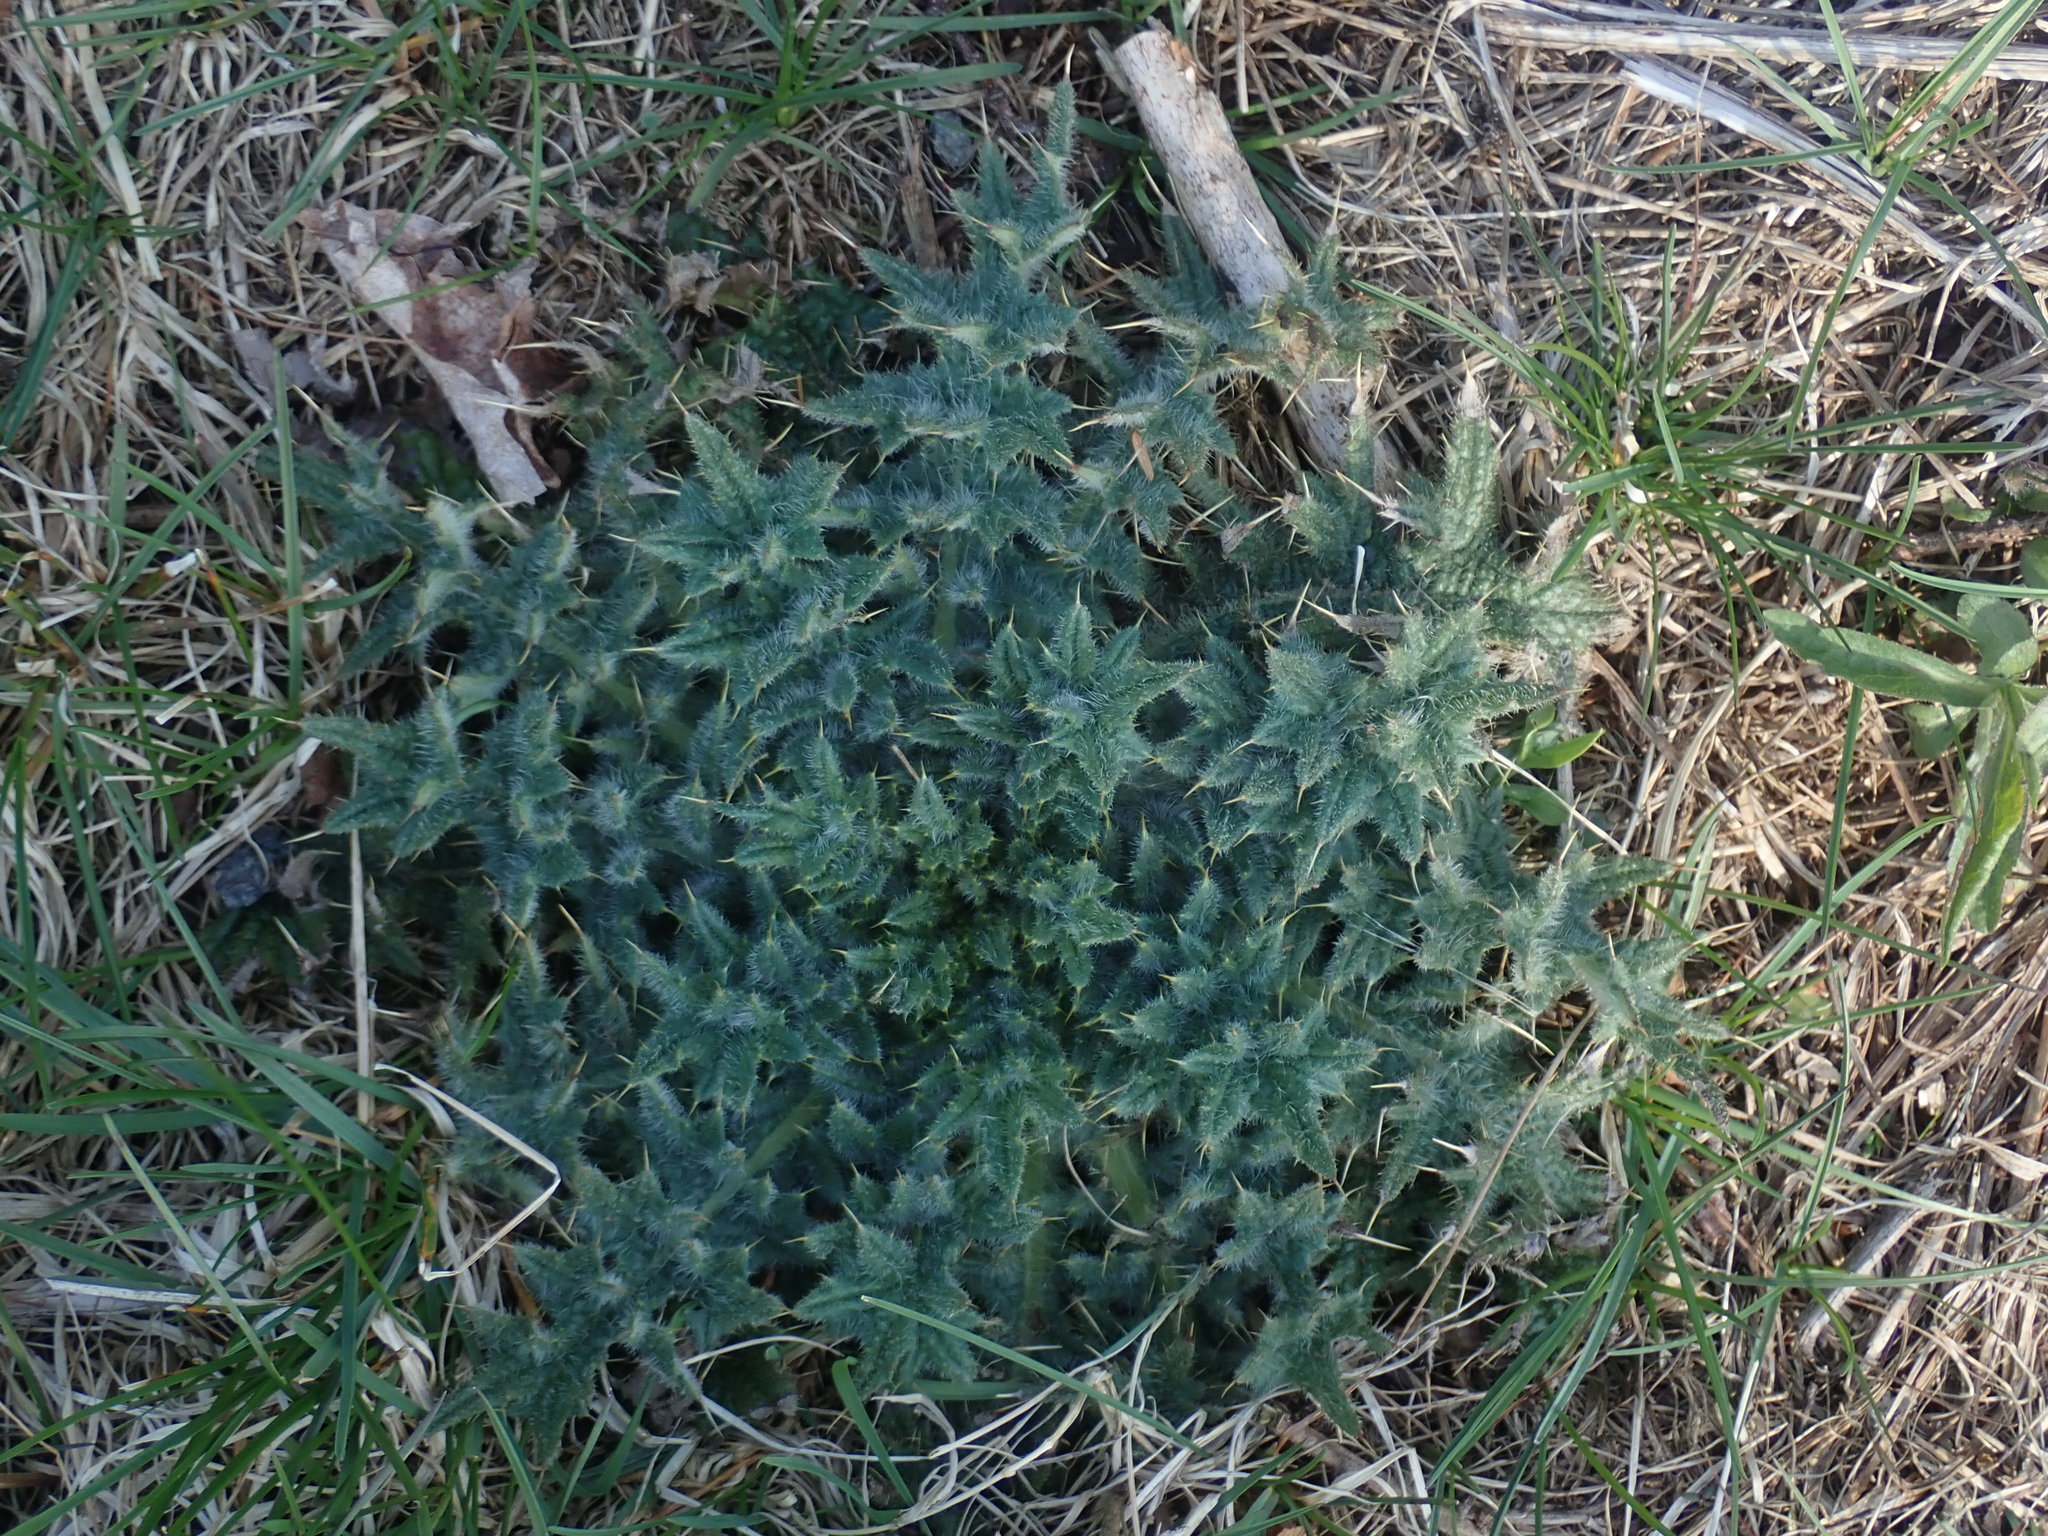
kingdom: Plantae
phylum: Tracheophyta
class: Magnoliopsida
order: Asterales
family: Asteraceae
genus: Cirsium
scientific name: Cirsium vulgare
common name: Bull thistle
